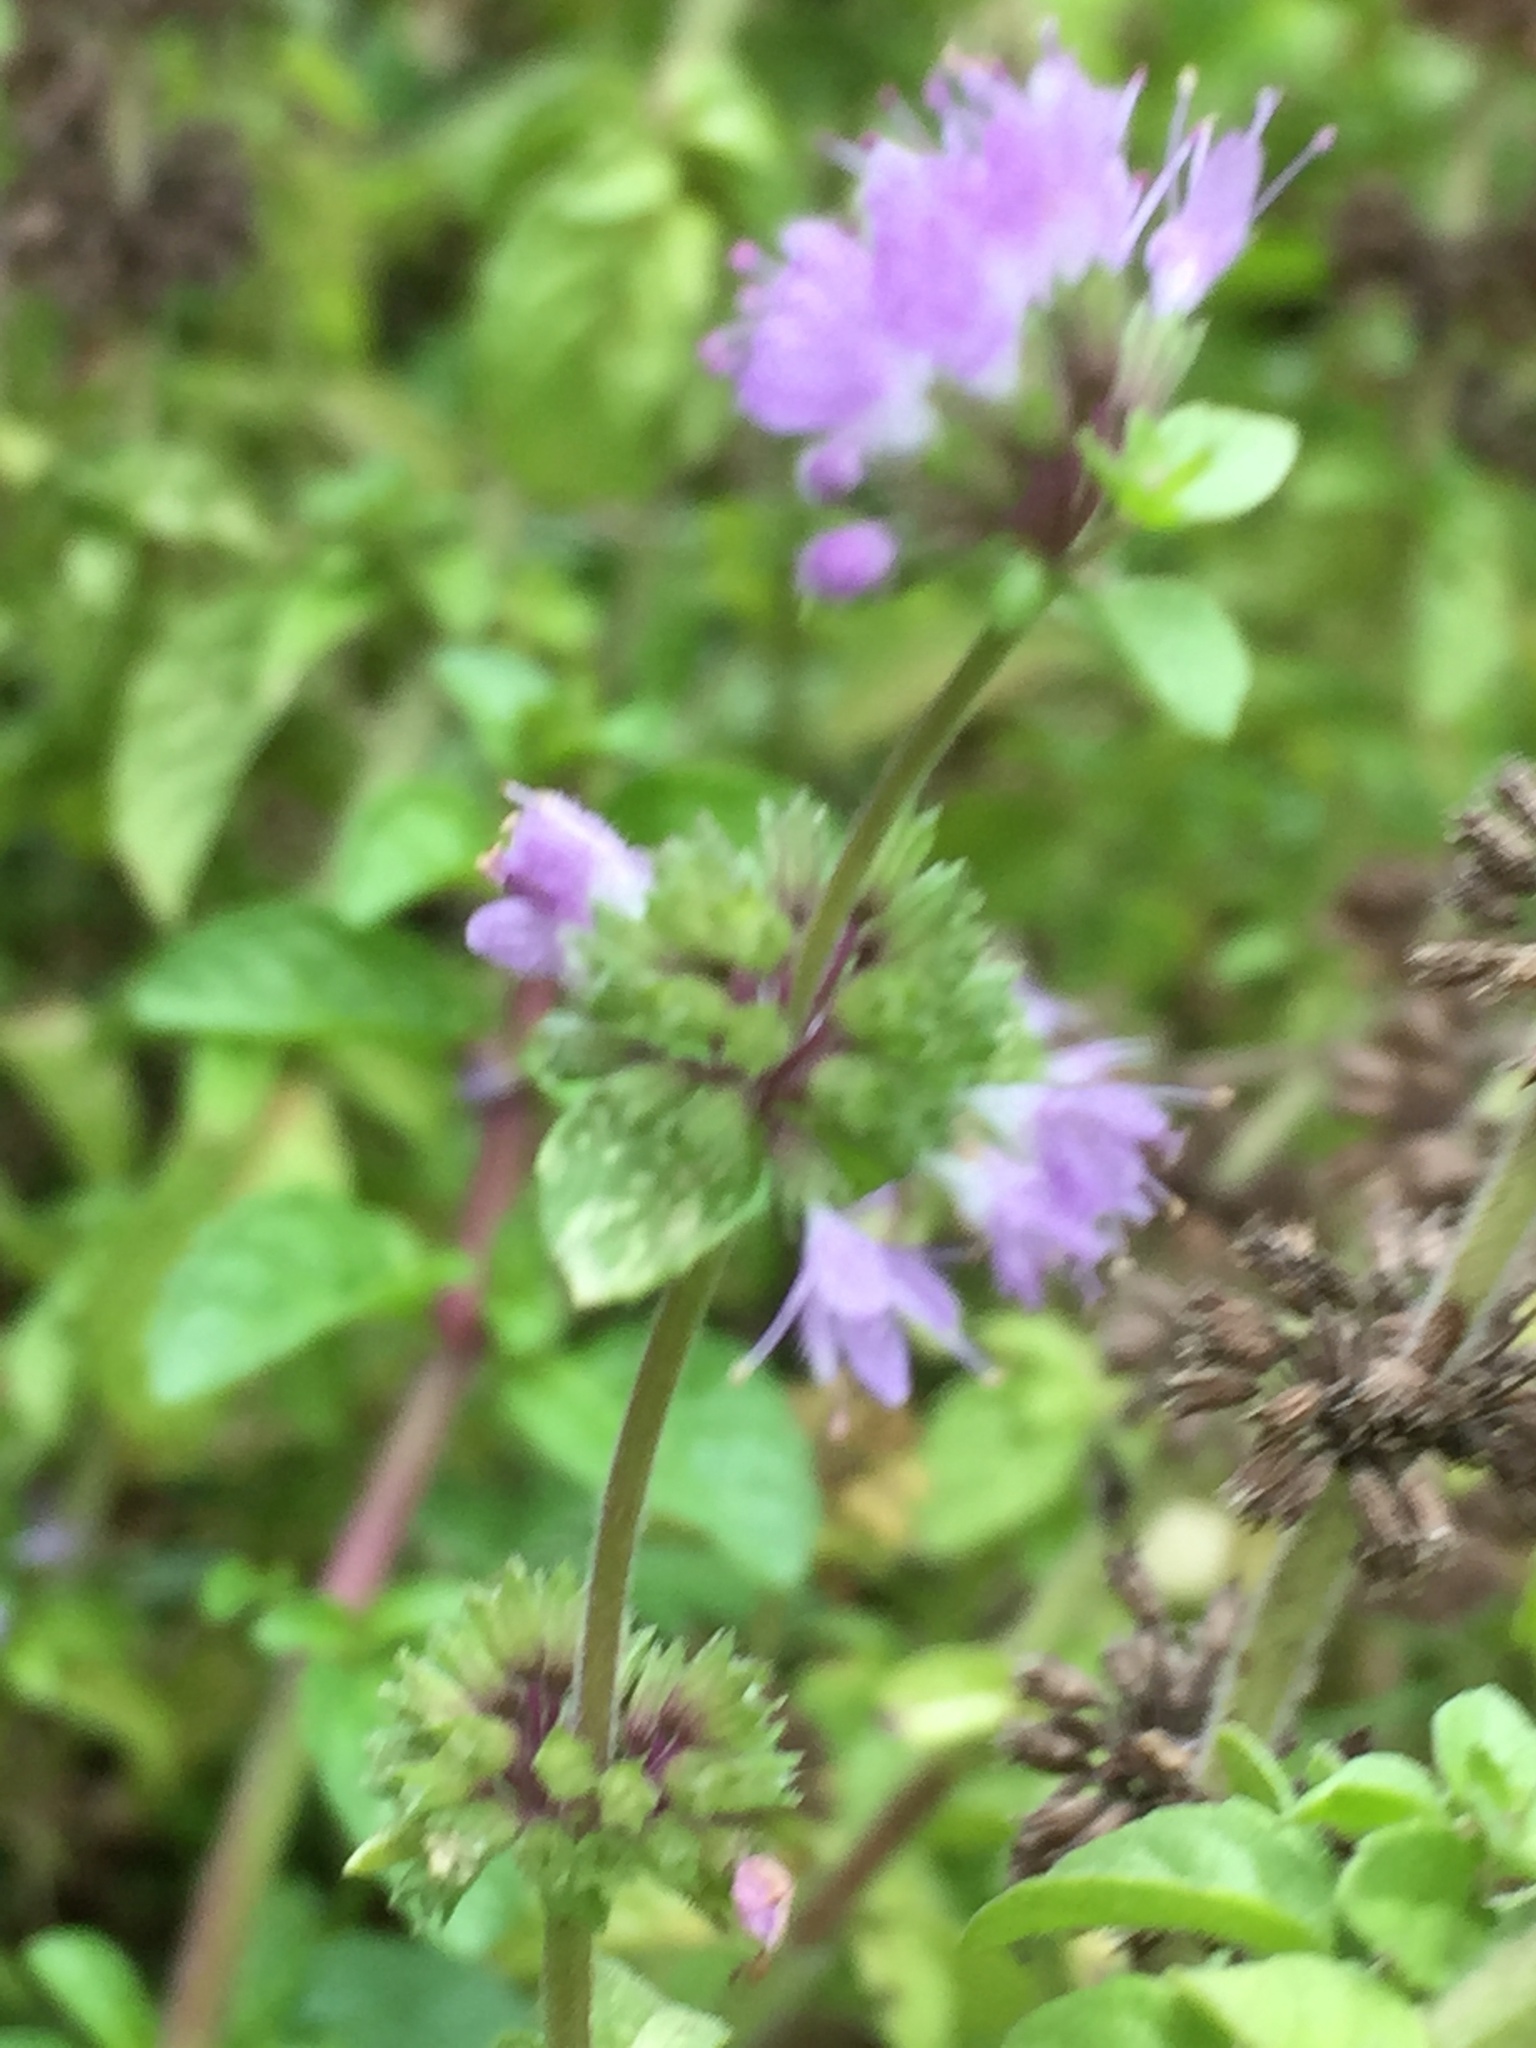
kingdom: Plantae
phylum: Tracheophyta
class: Magnoliopsida
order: Lamiales
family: Lamiaceae
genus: Mentha
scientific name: Mentha pulegium
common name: Pennyroyal
